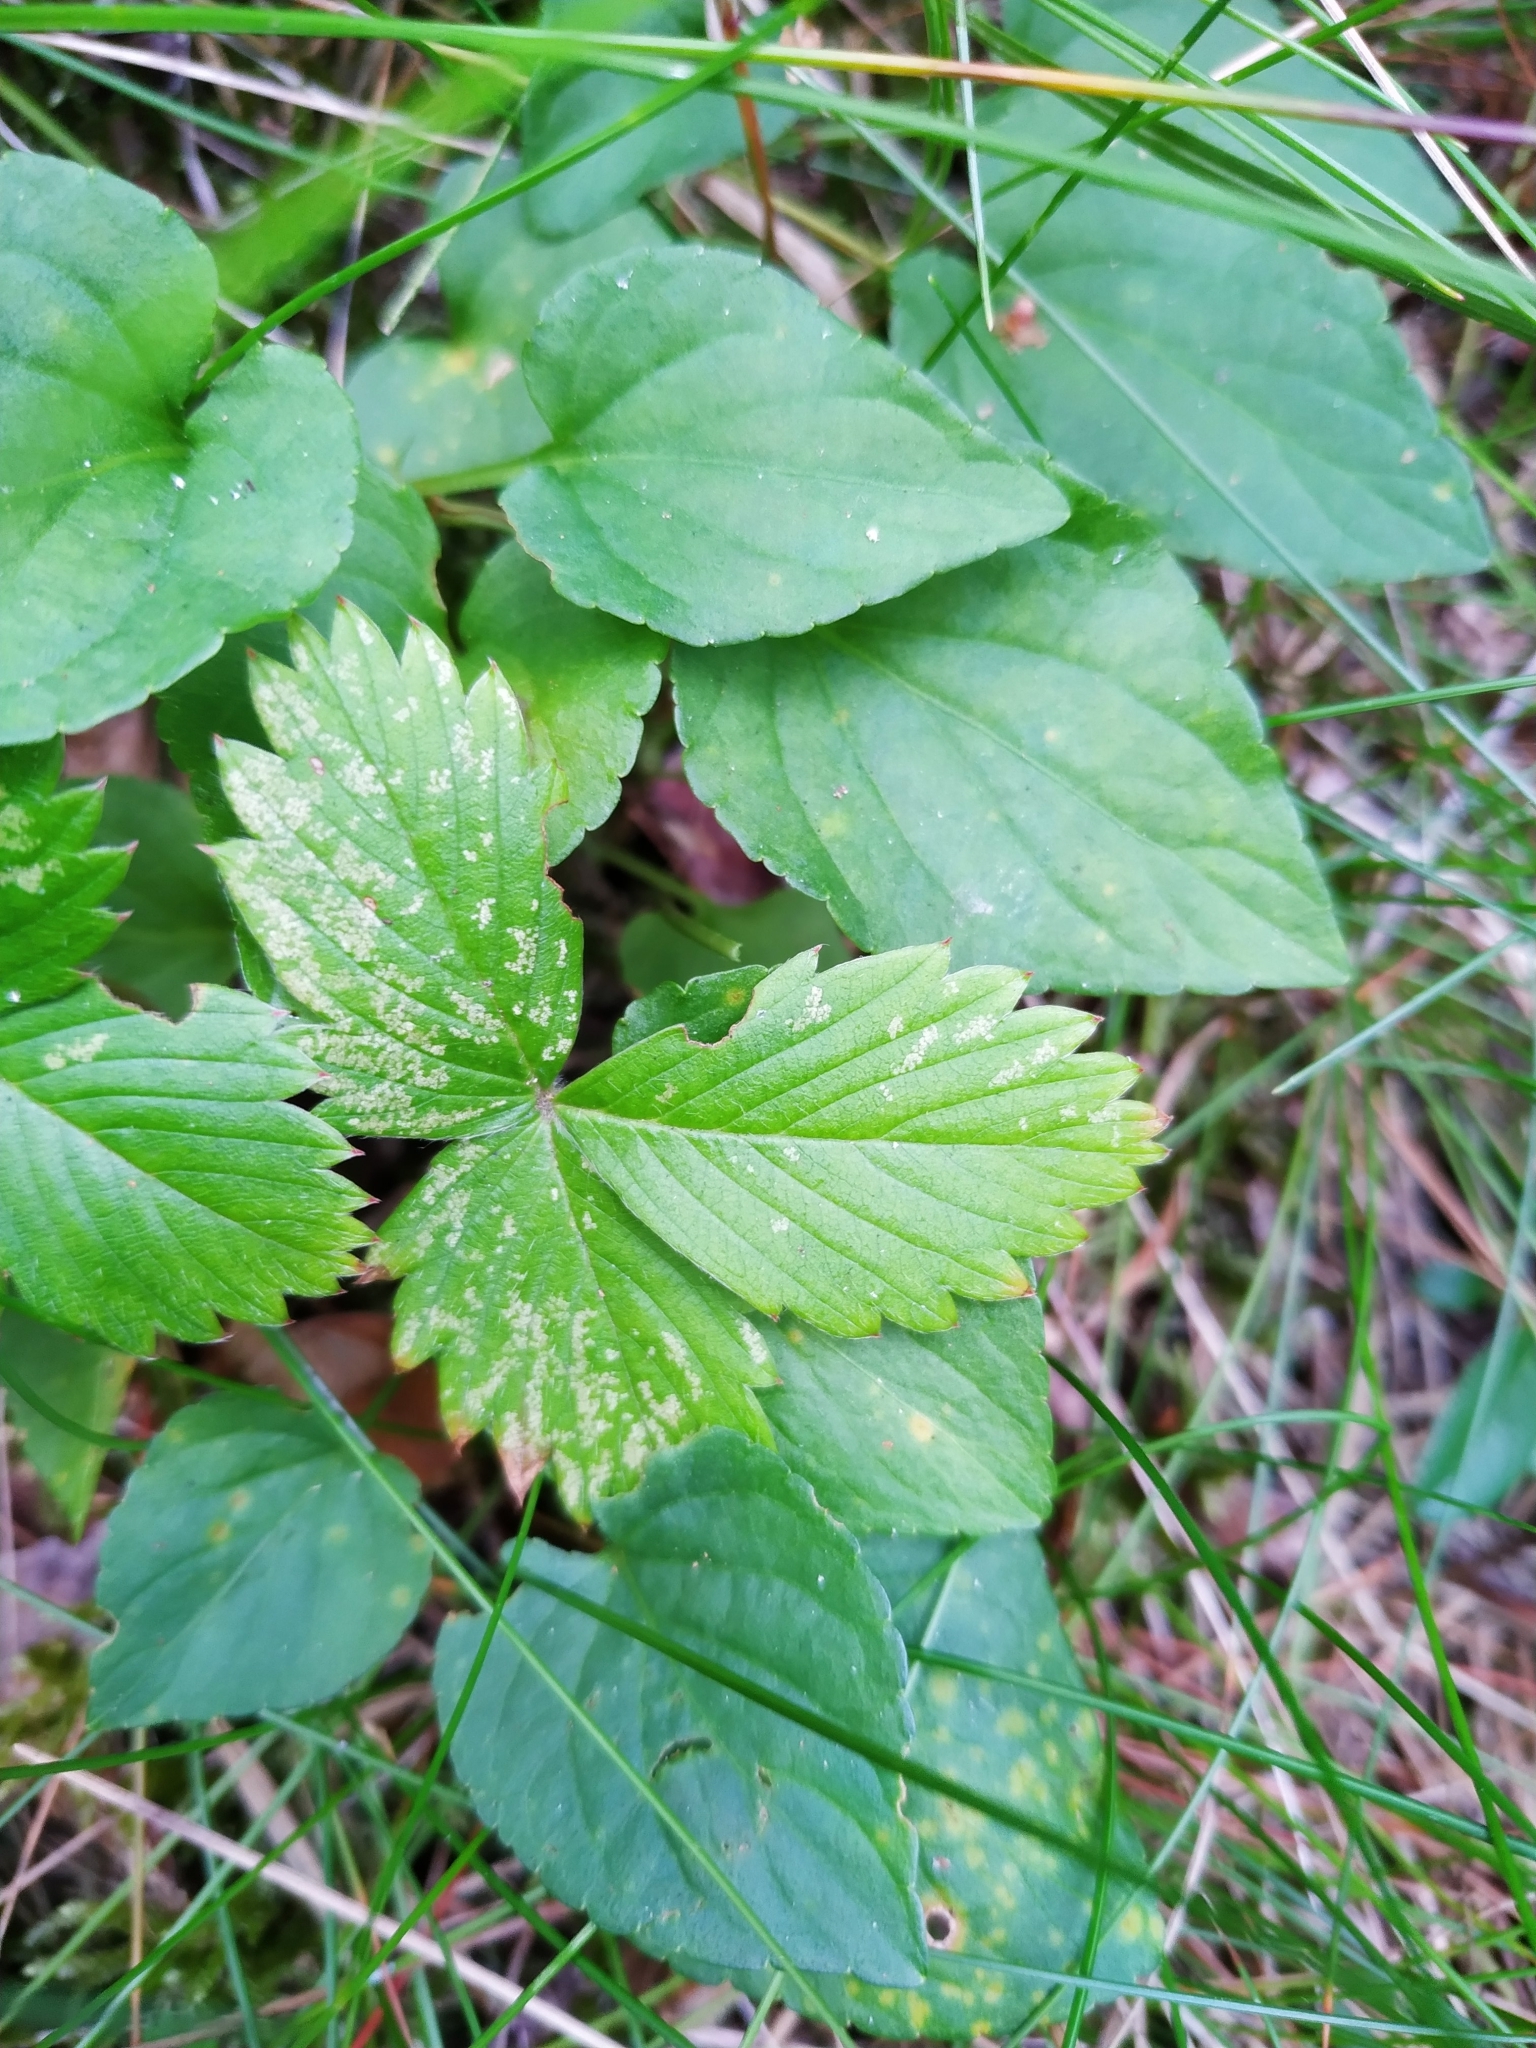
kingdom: Plantae
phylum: Tracheophyta
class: Magnoliopsida
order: Rosales
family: Rosaceae
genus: Fragaria
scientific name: Fragaria vesca
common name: Wild strawberry
